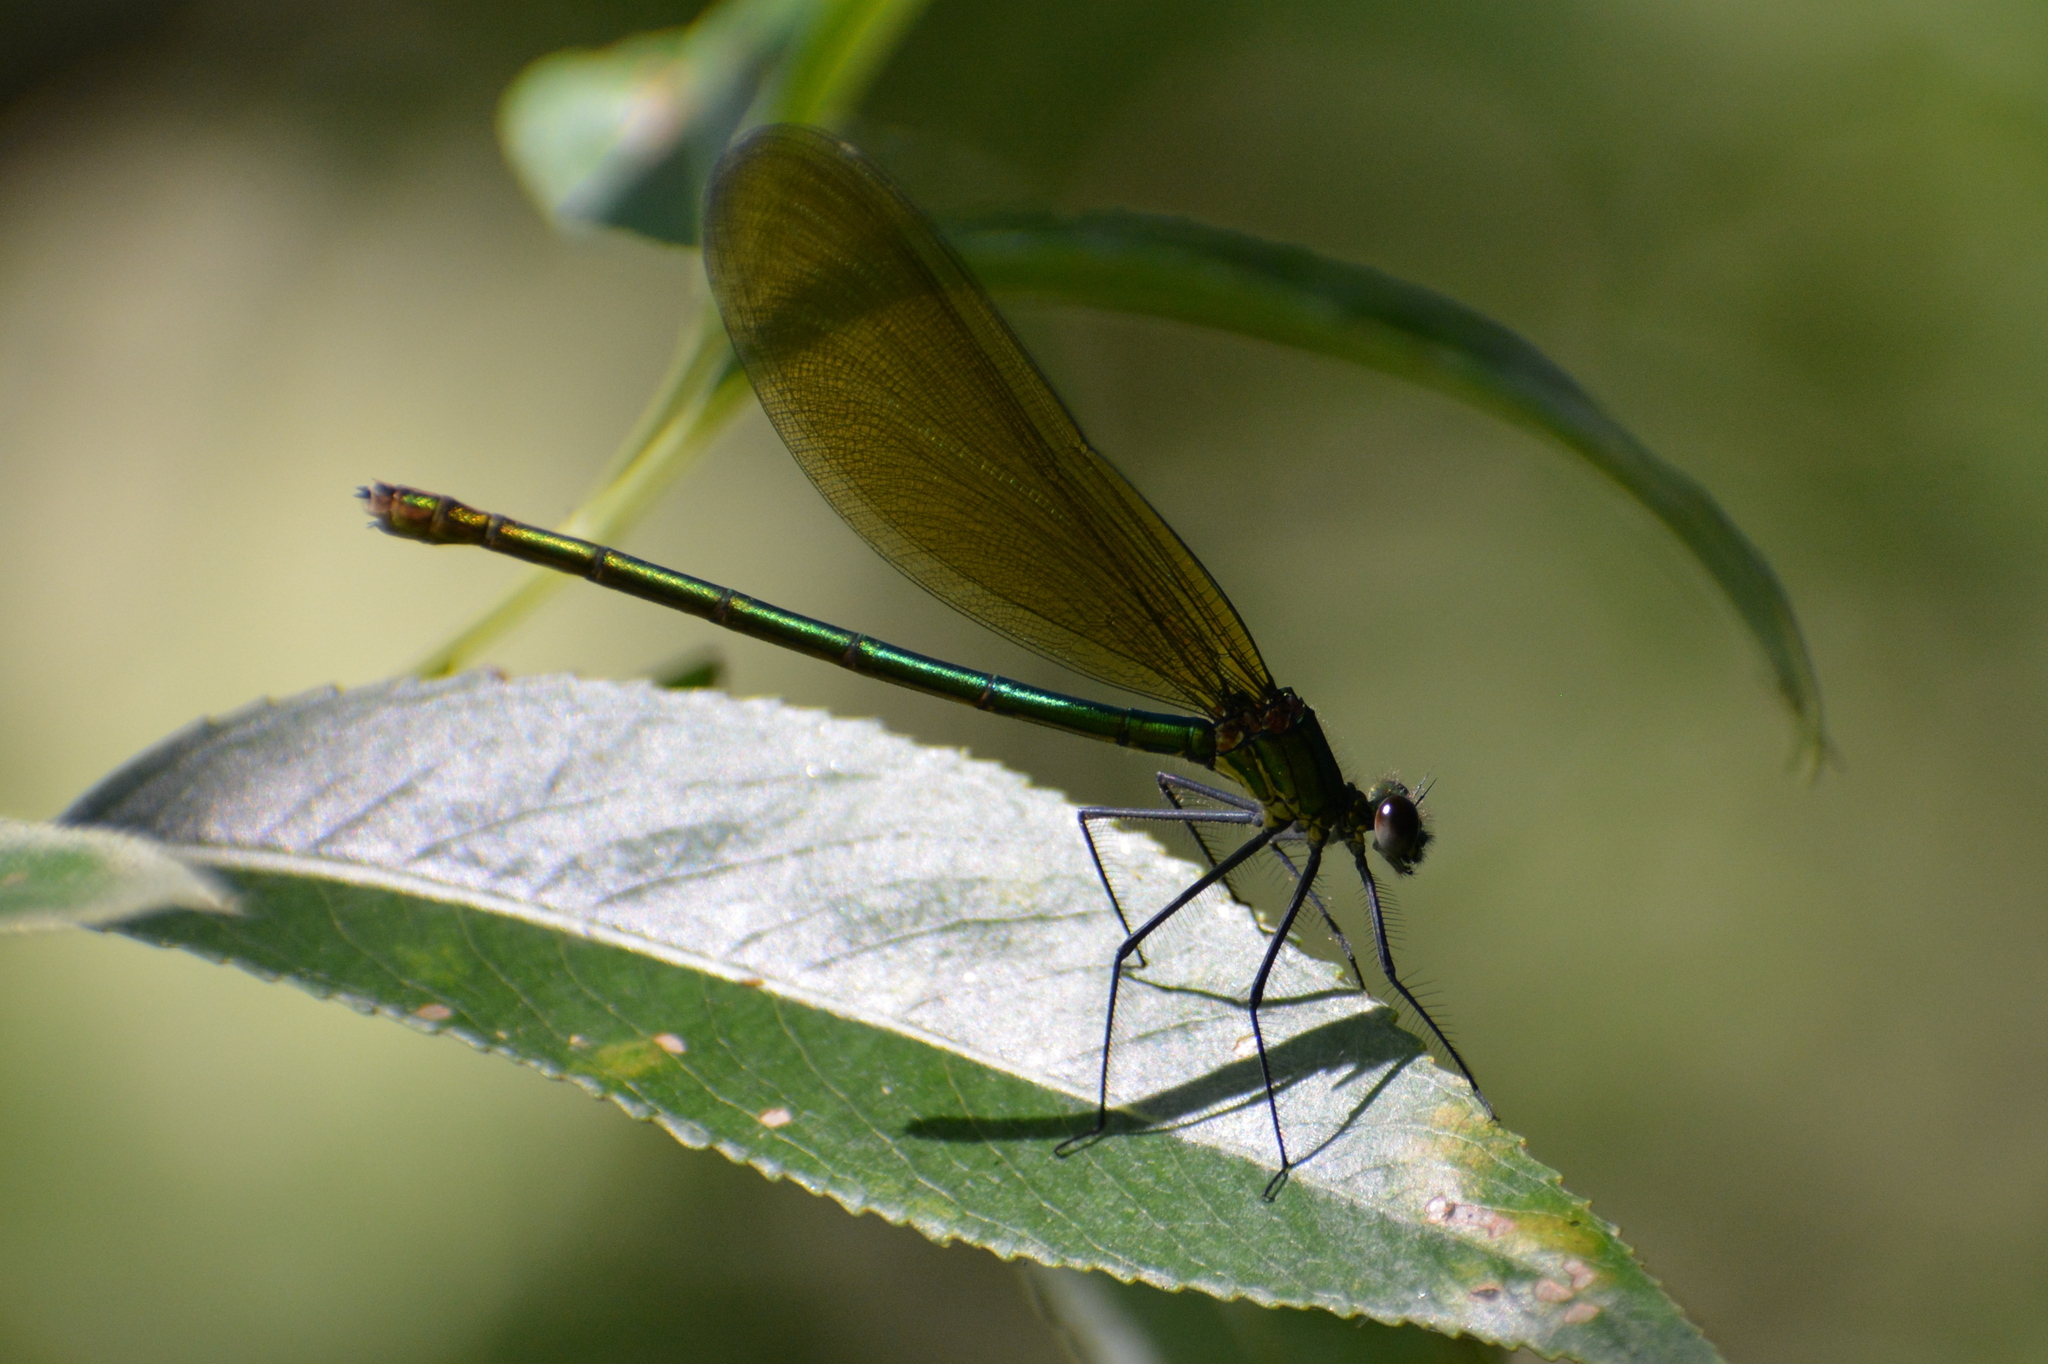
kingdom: Animalia
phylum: Arthropoda
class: Insecta
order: Odonata
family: Calopterygidae
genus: Calopteryx
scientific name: Calopteryx splendens
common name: Banded demoiselle
